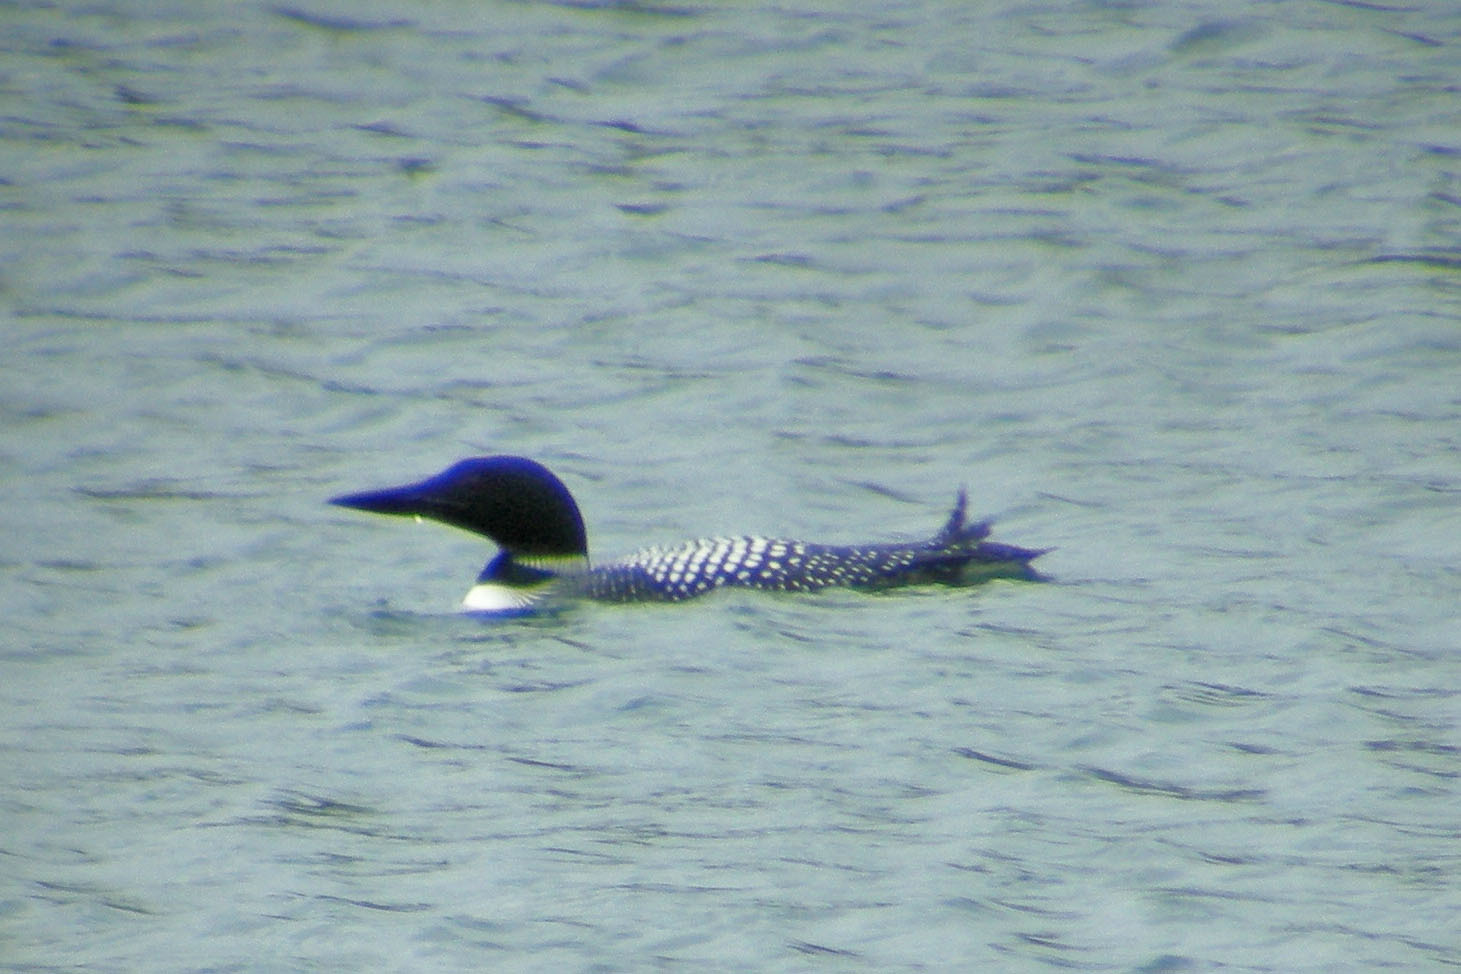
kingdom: Animalia
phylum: Chordata
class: Aves
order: Gaviiformes
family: Gaviidae
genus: Gavia
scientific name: Gavia immer
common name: Common loon
